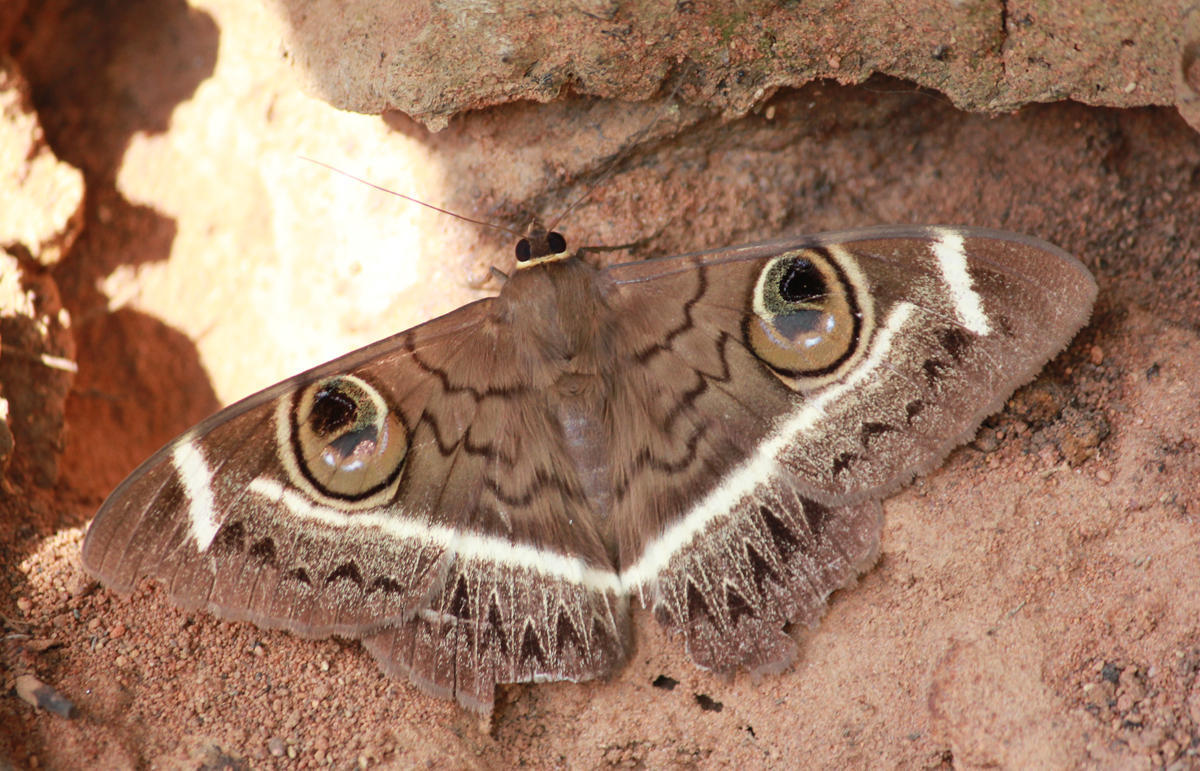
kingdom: Animalia
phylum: Arthropoda
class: Insecta
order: Lepidoptera
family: Erebidae
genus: Cyligramma
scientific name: Cyligramma latona
